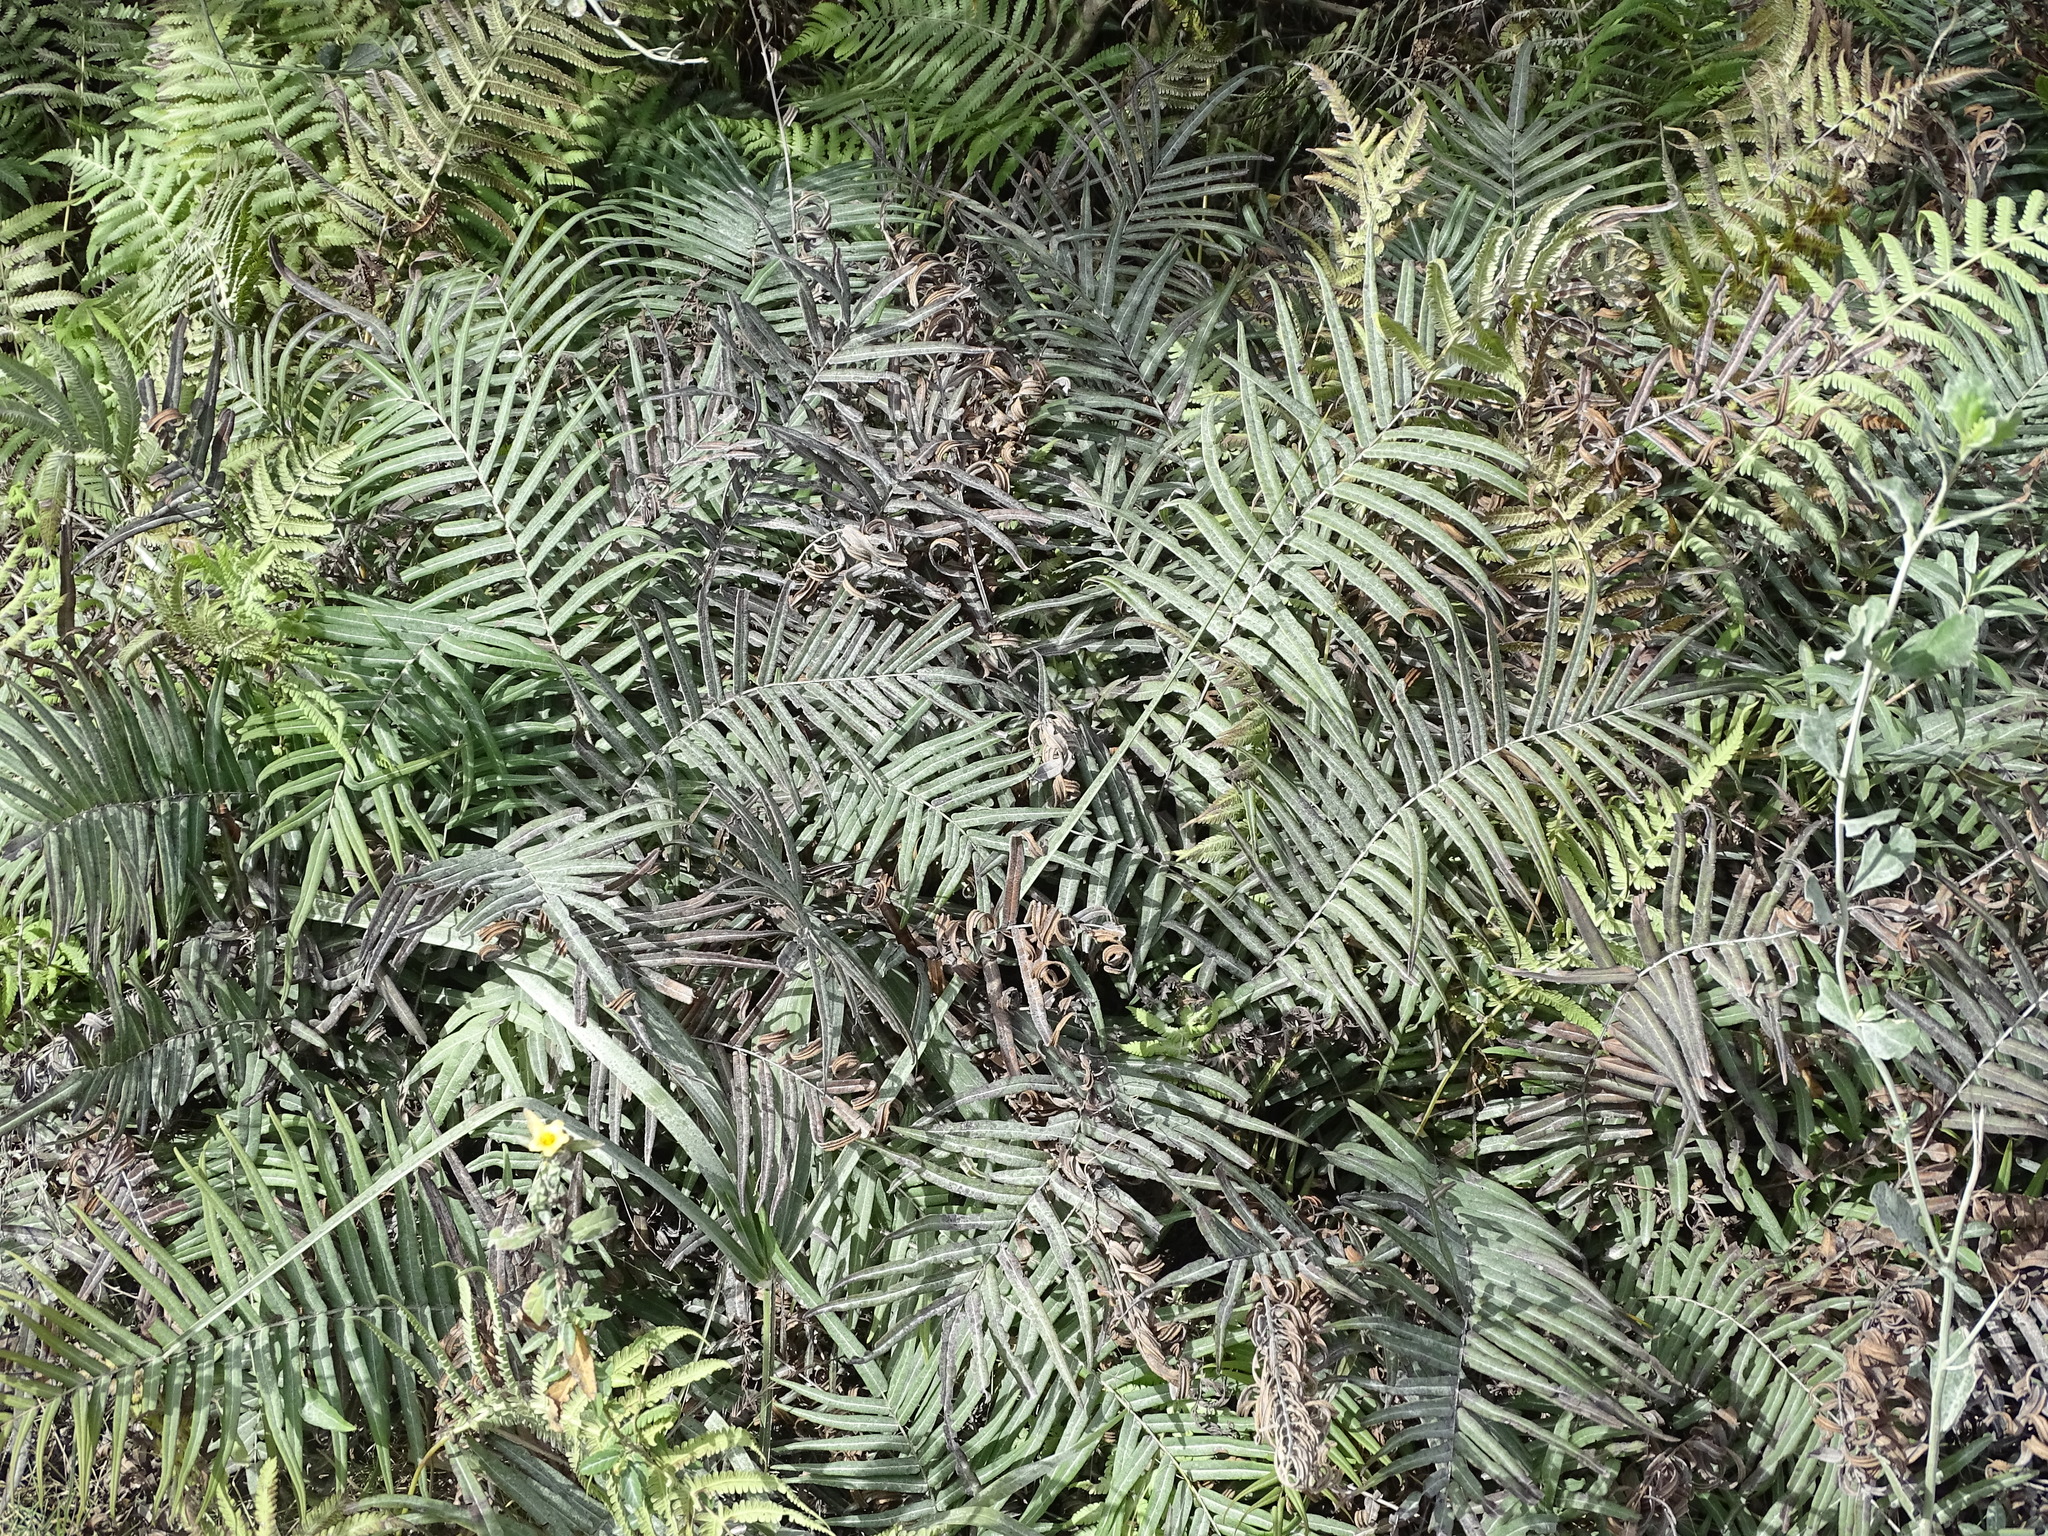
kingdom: Plantae
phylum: Tracheophyta
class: Polypodiopsida
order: Polypodiales
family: Pteridaceae
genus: Pteris
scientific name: Pteris vittata
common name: Ladder brake
